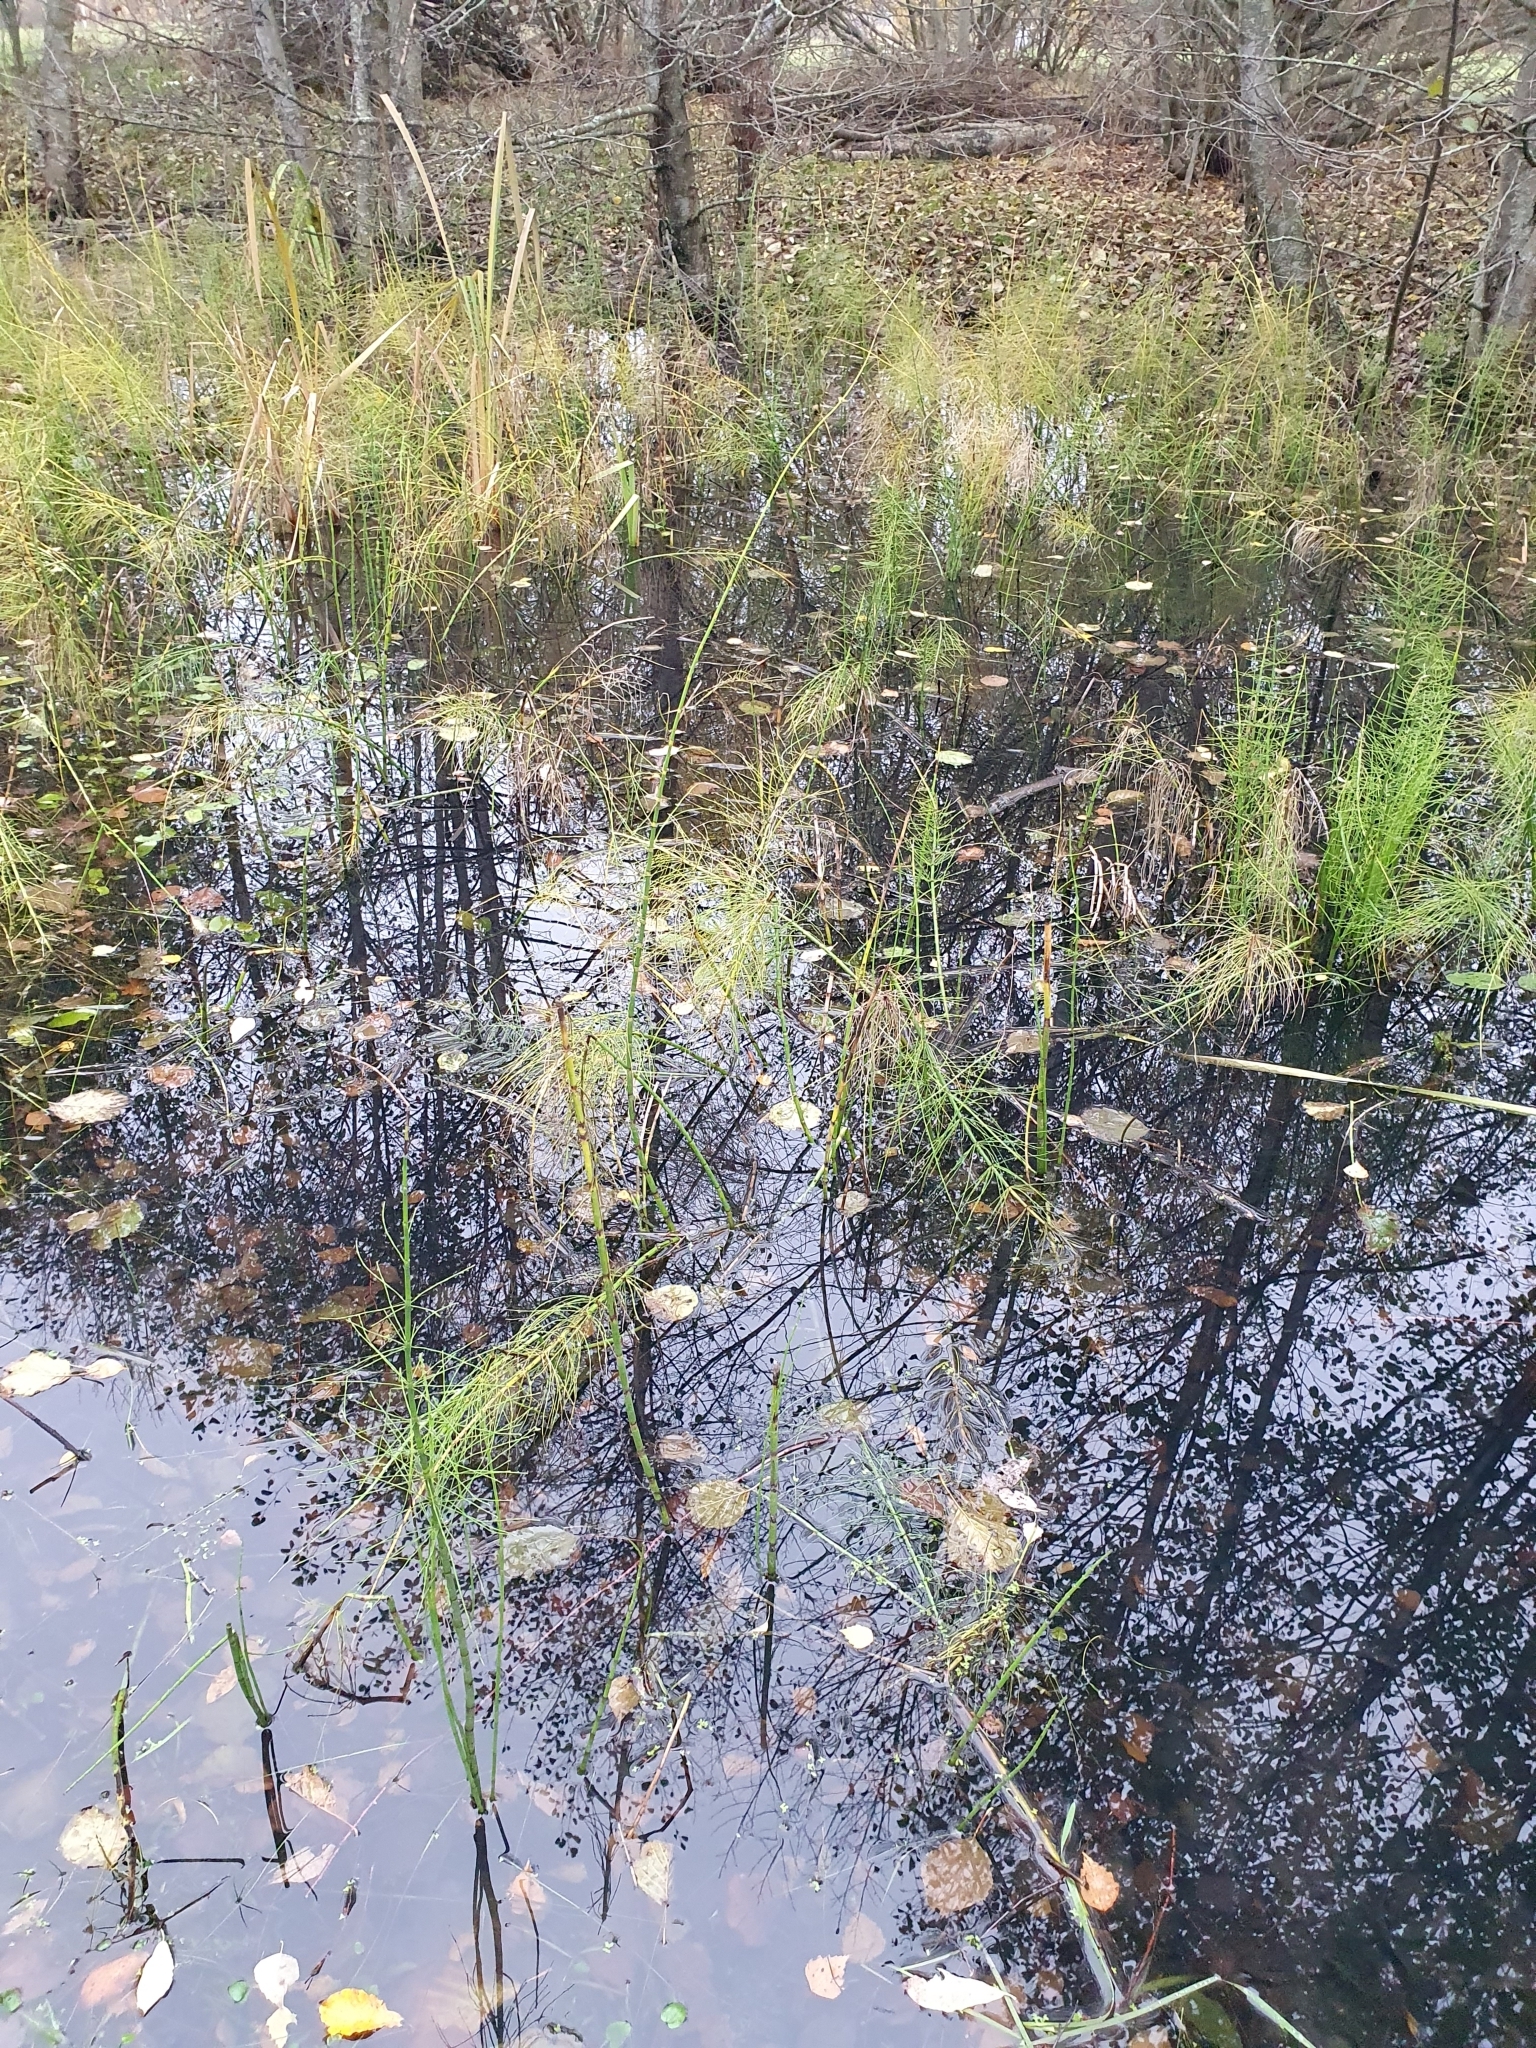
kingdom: Plantae
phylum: Tracheophyta
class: Polypodiopsida
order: Equisetales
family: Equisetaceae
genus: Equisetum
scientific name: Equisetum fluviatile
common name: Water horsetail
